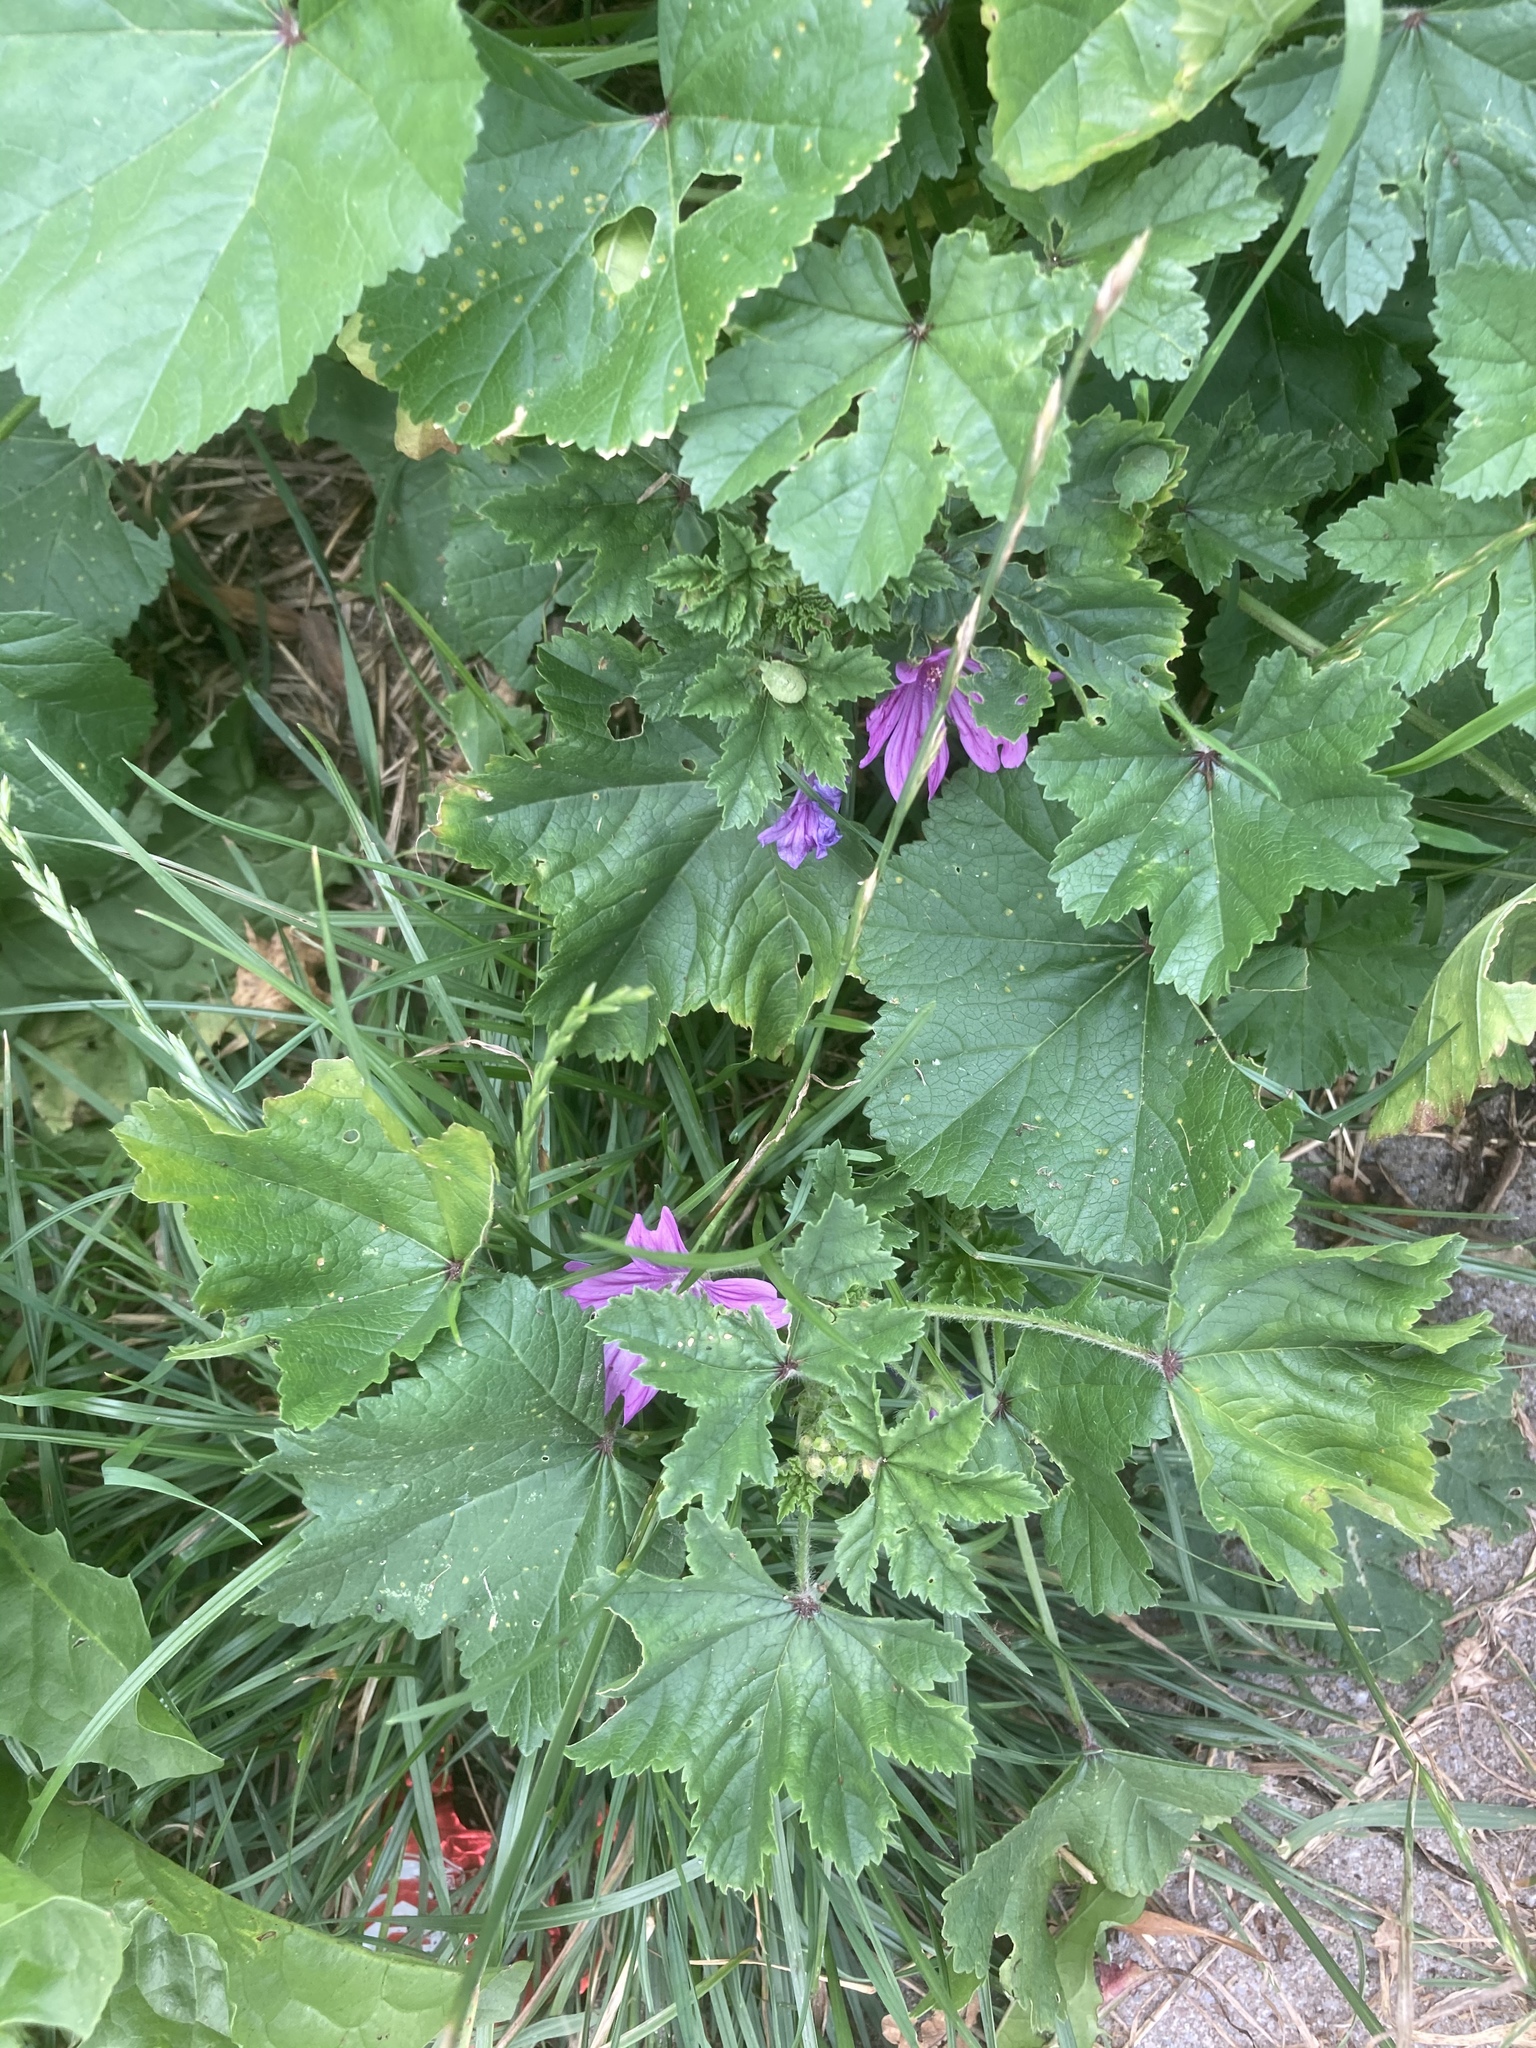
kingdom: Plantae
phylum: Tracheophyta
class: Magnoliopsida
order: Malvales
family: Malvaceae
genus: Malva
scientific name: Malva sylvestris
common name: Common mallow
